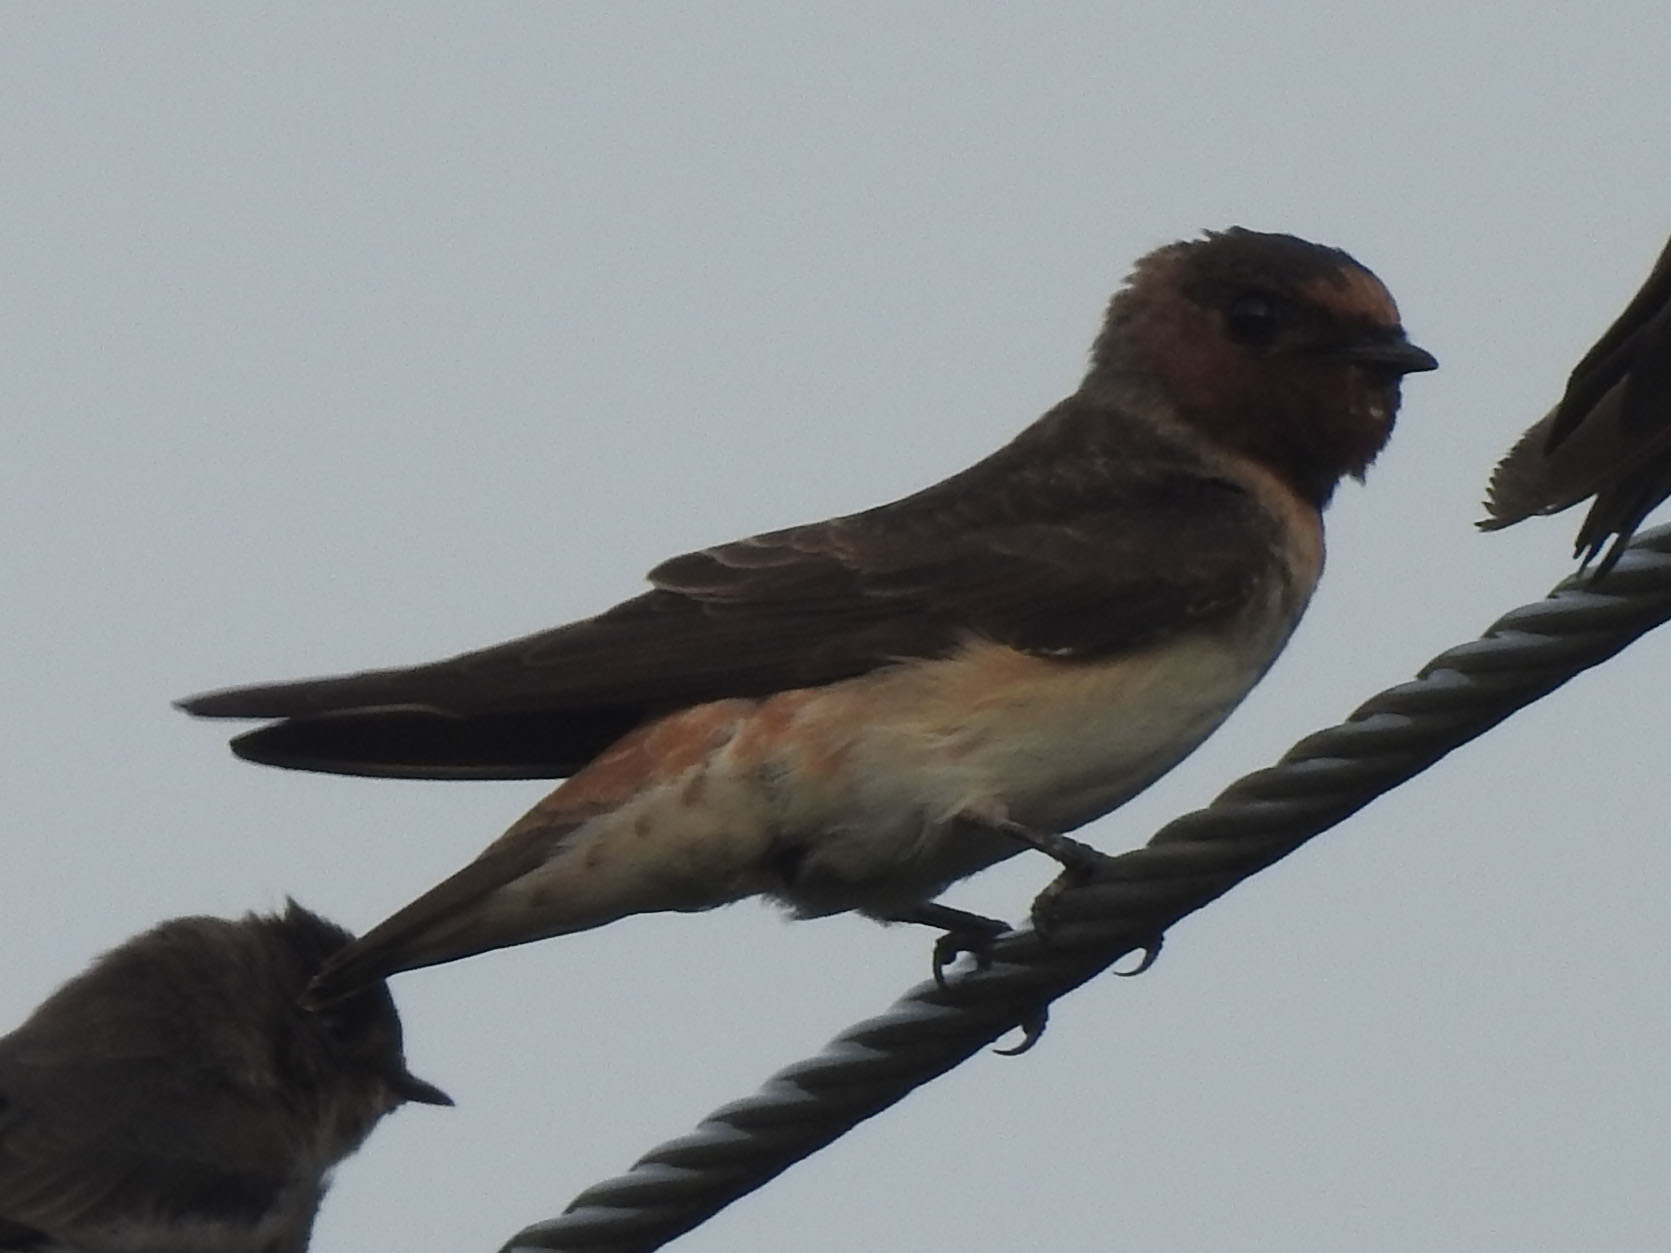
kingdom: Animalia
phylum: Chordata
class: Aves
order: Passeriformes
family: Hirundinidae
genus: Petrochelidon
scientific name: Petrochelidon pyrrhonota
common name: American cliff swallow
